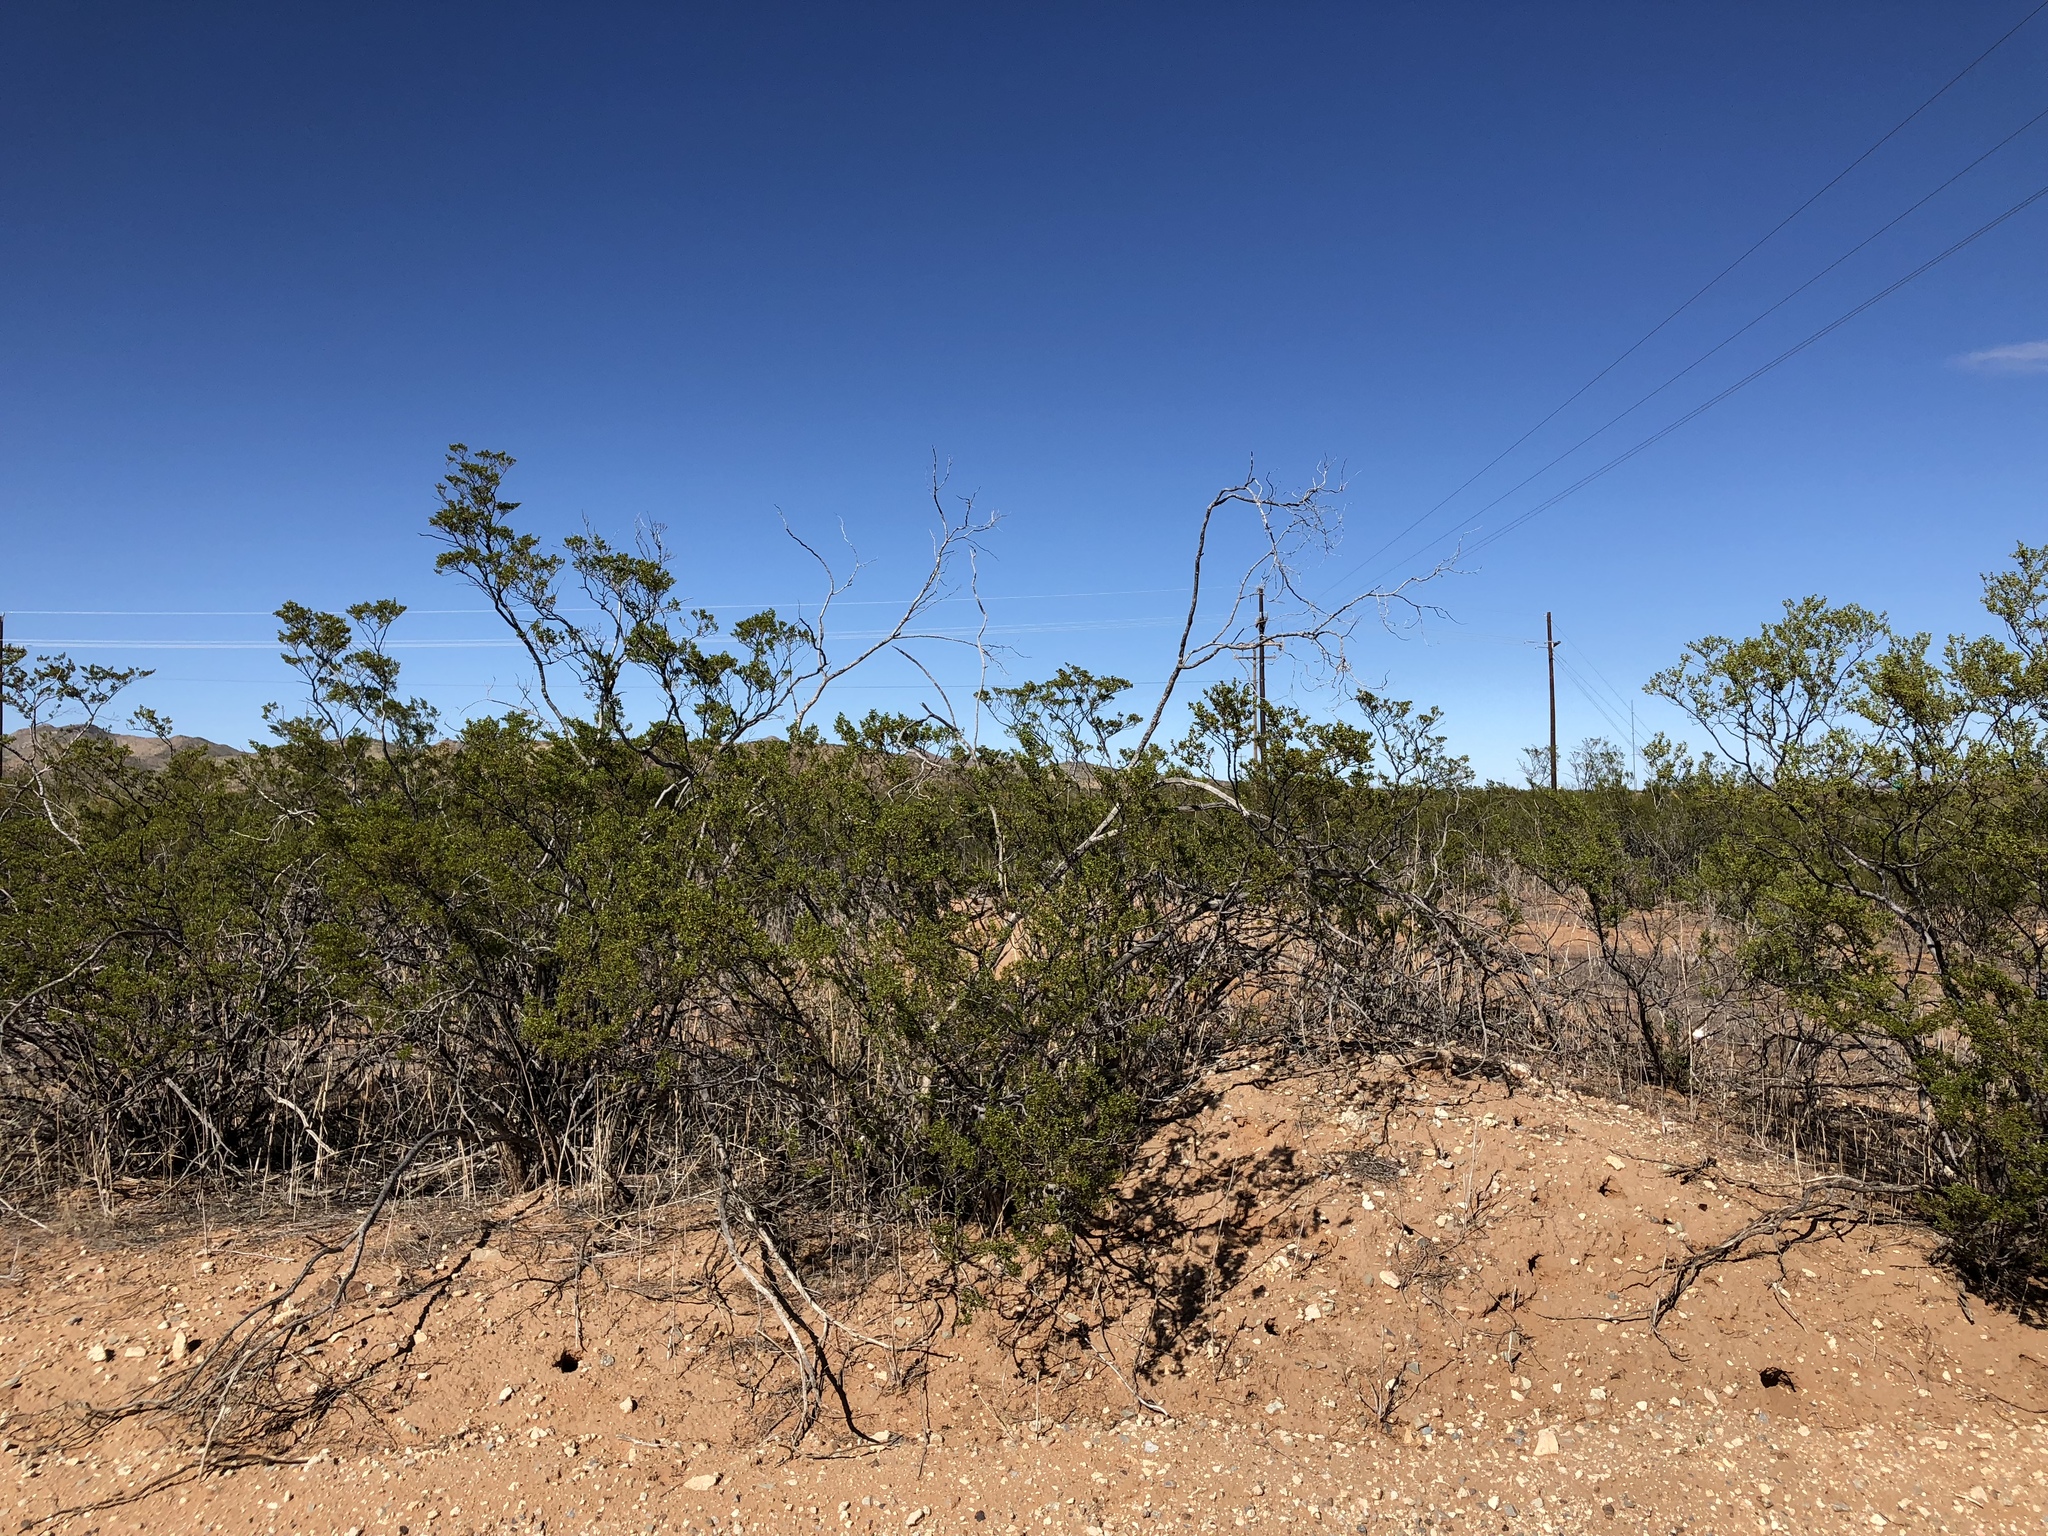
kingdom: Plantae
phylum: Tracheophyta
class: Magnoliopsida
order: Zygophyllales
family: Zygophyllaceae
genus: Larrea
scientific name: Larrea tridentata
